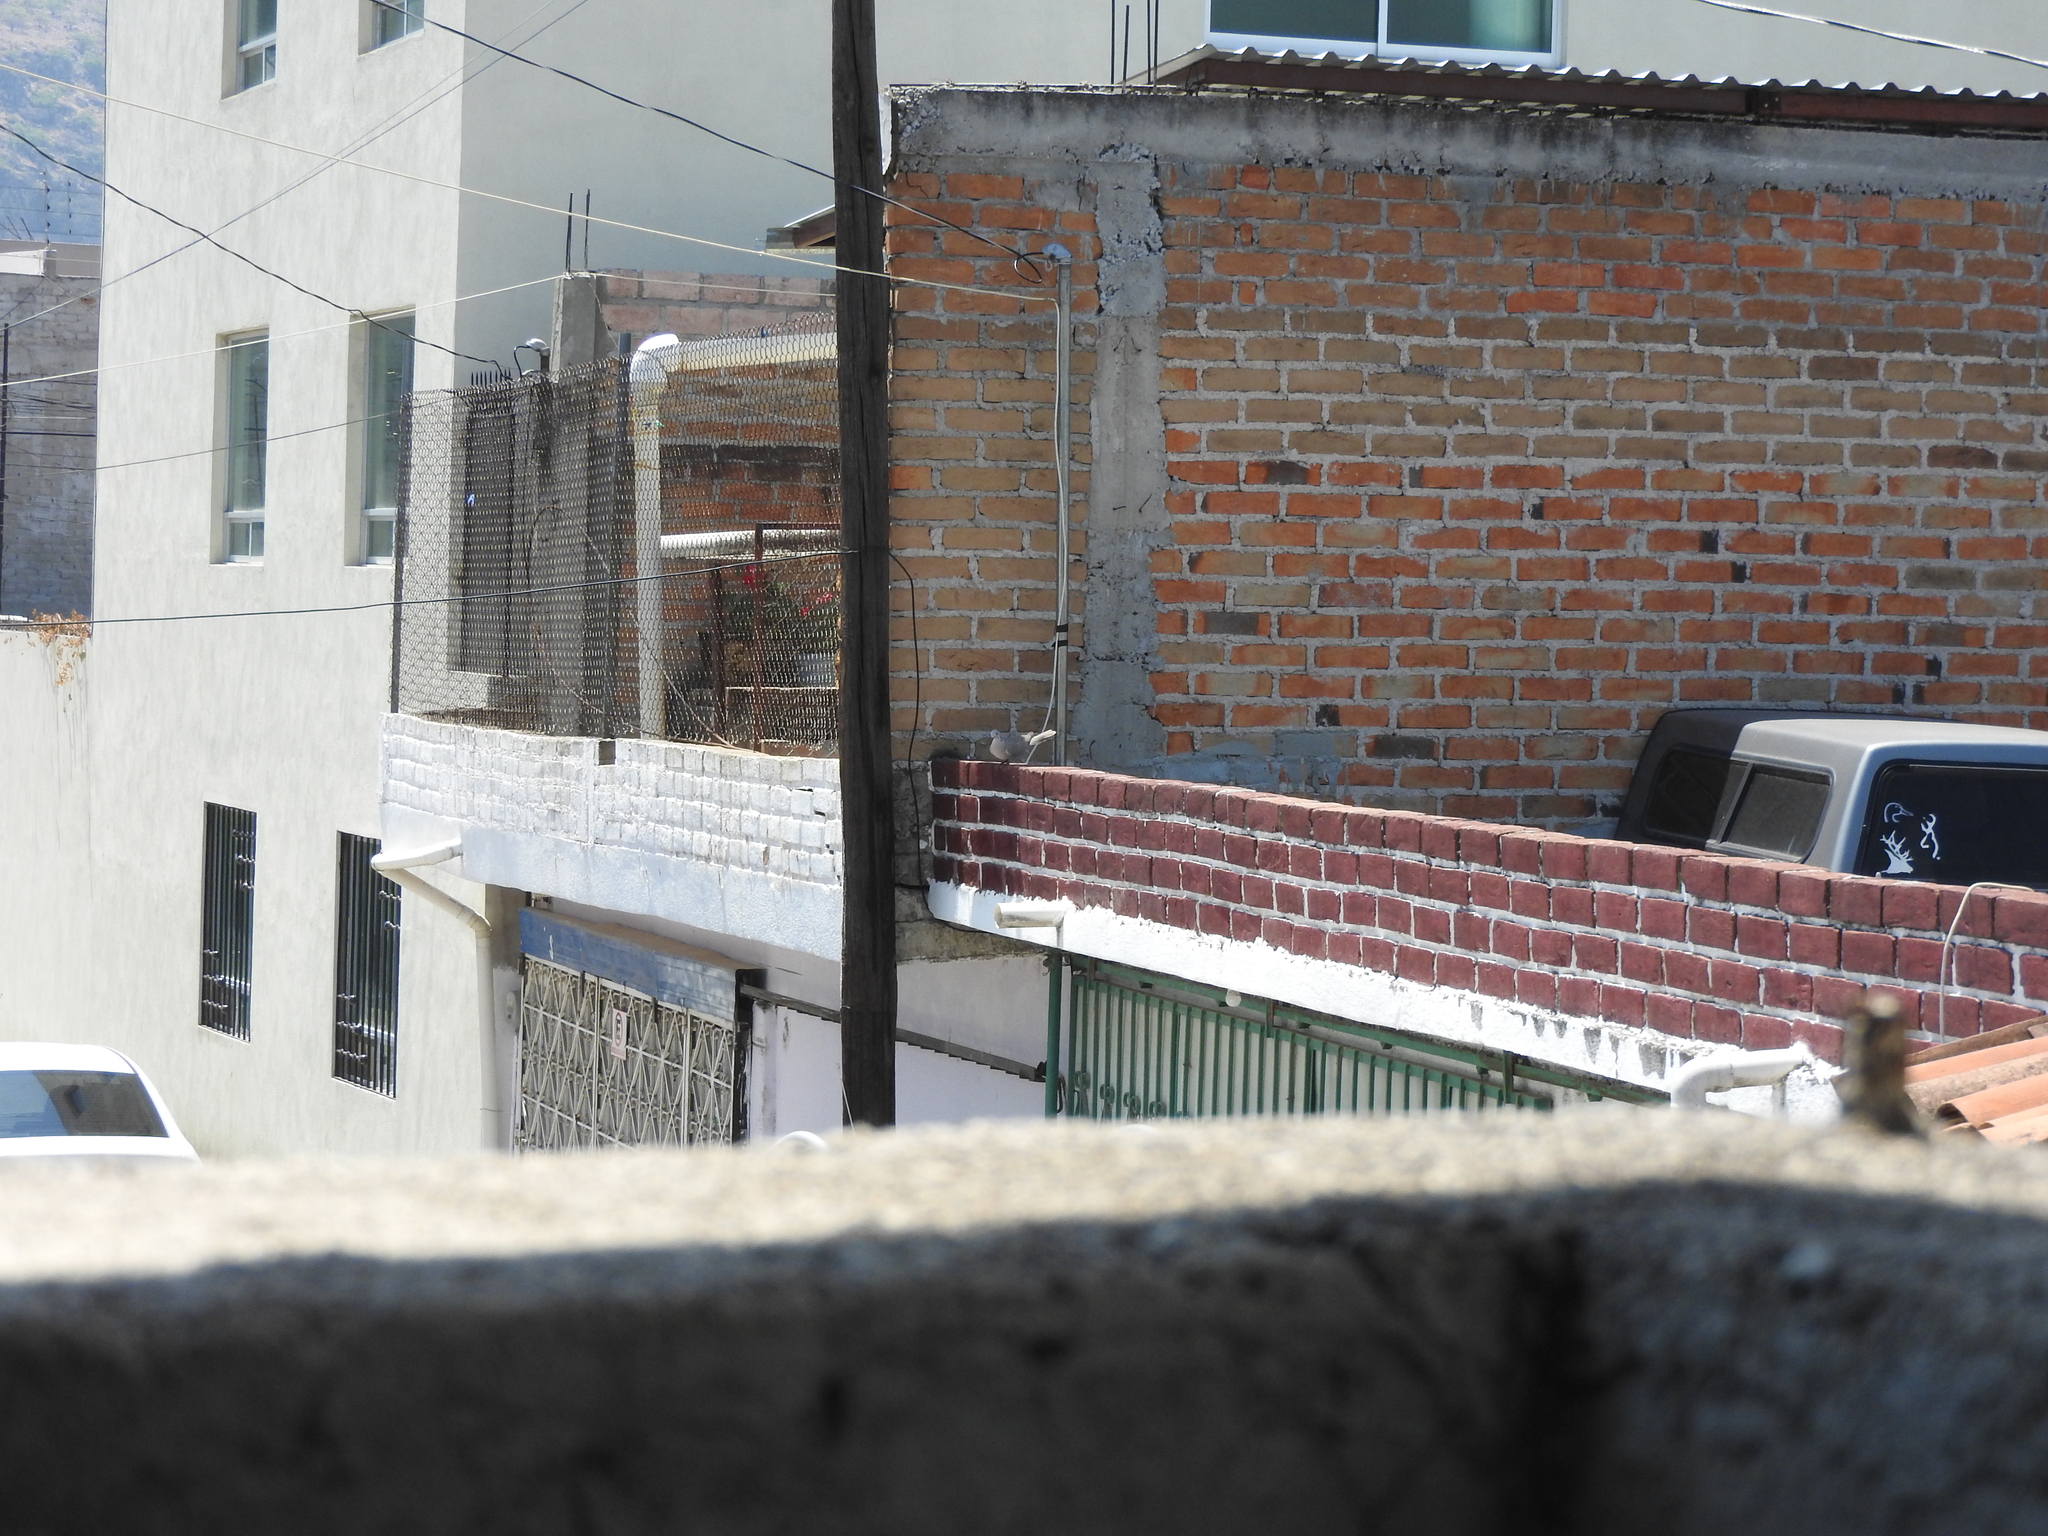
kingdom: Animalia
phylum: Chordata
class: Aves
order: Columbiformes
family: Columbidae
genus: Streptopelia
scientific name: Streptopelia decaocto
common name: Eurasian collared dove
